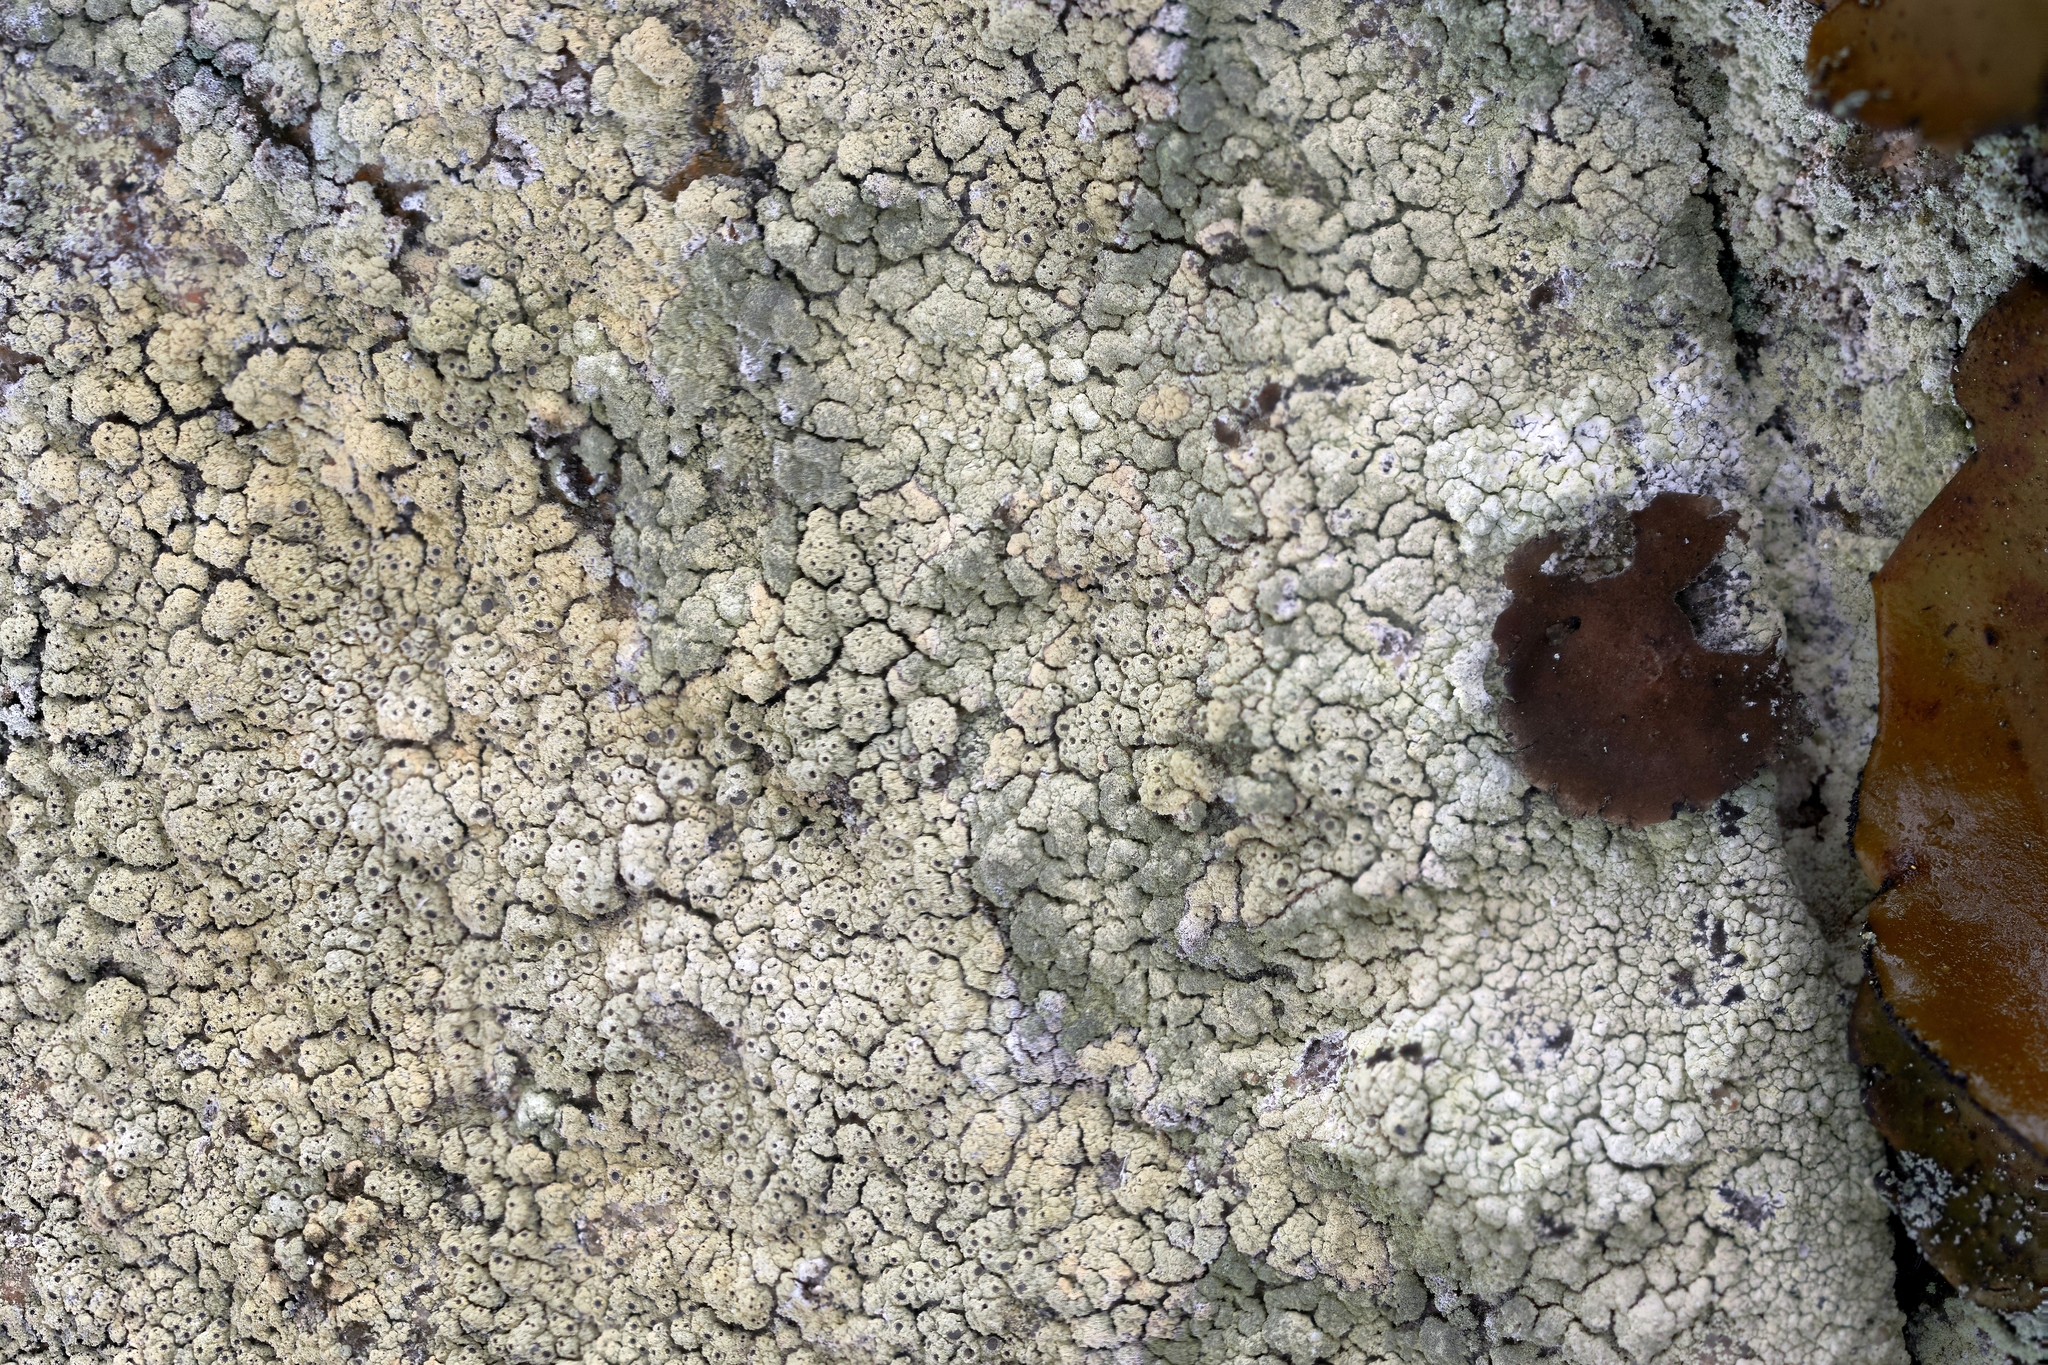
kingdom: Fungi
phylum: Ascomycota
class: Lecanoromycetes
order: Ostropales
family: Graphidaceae
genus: Diploschistes
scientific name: Diploschistes scruposus
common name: Crater lichen
